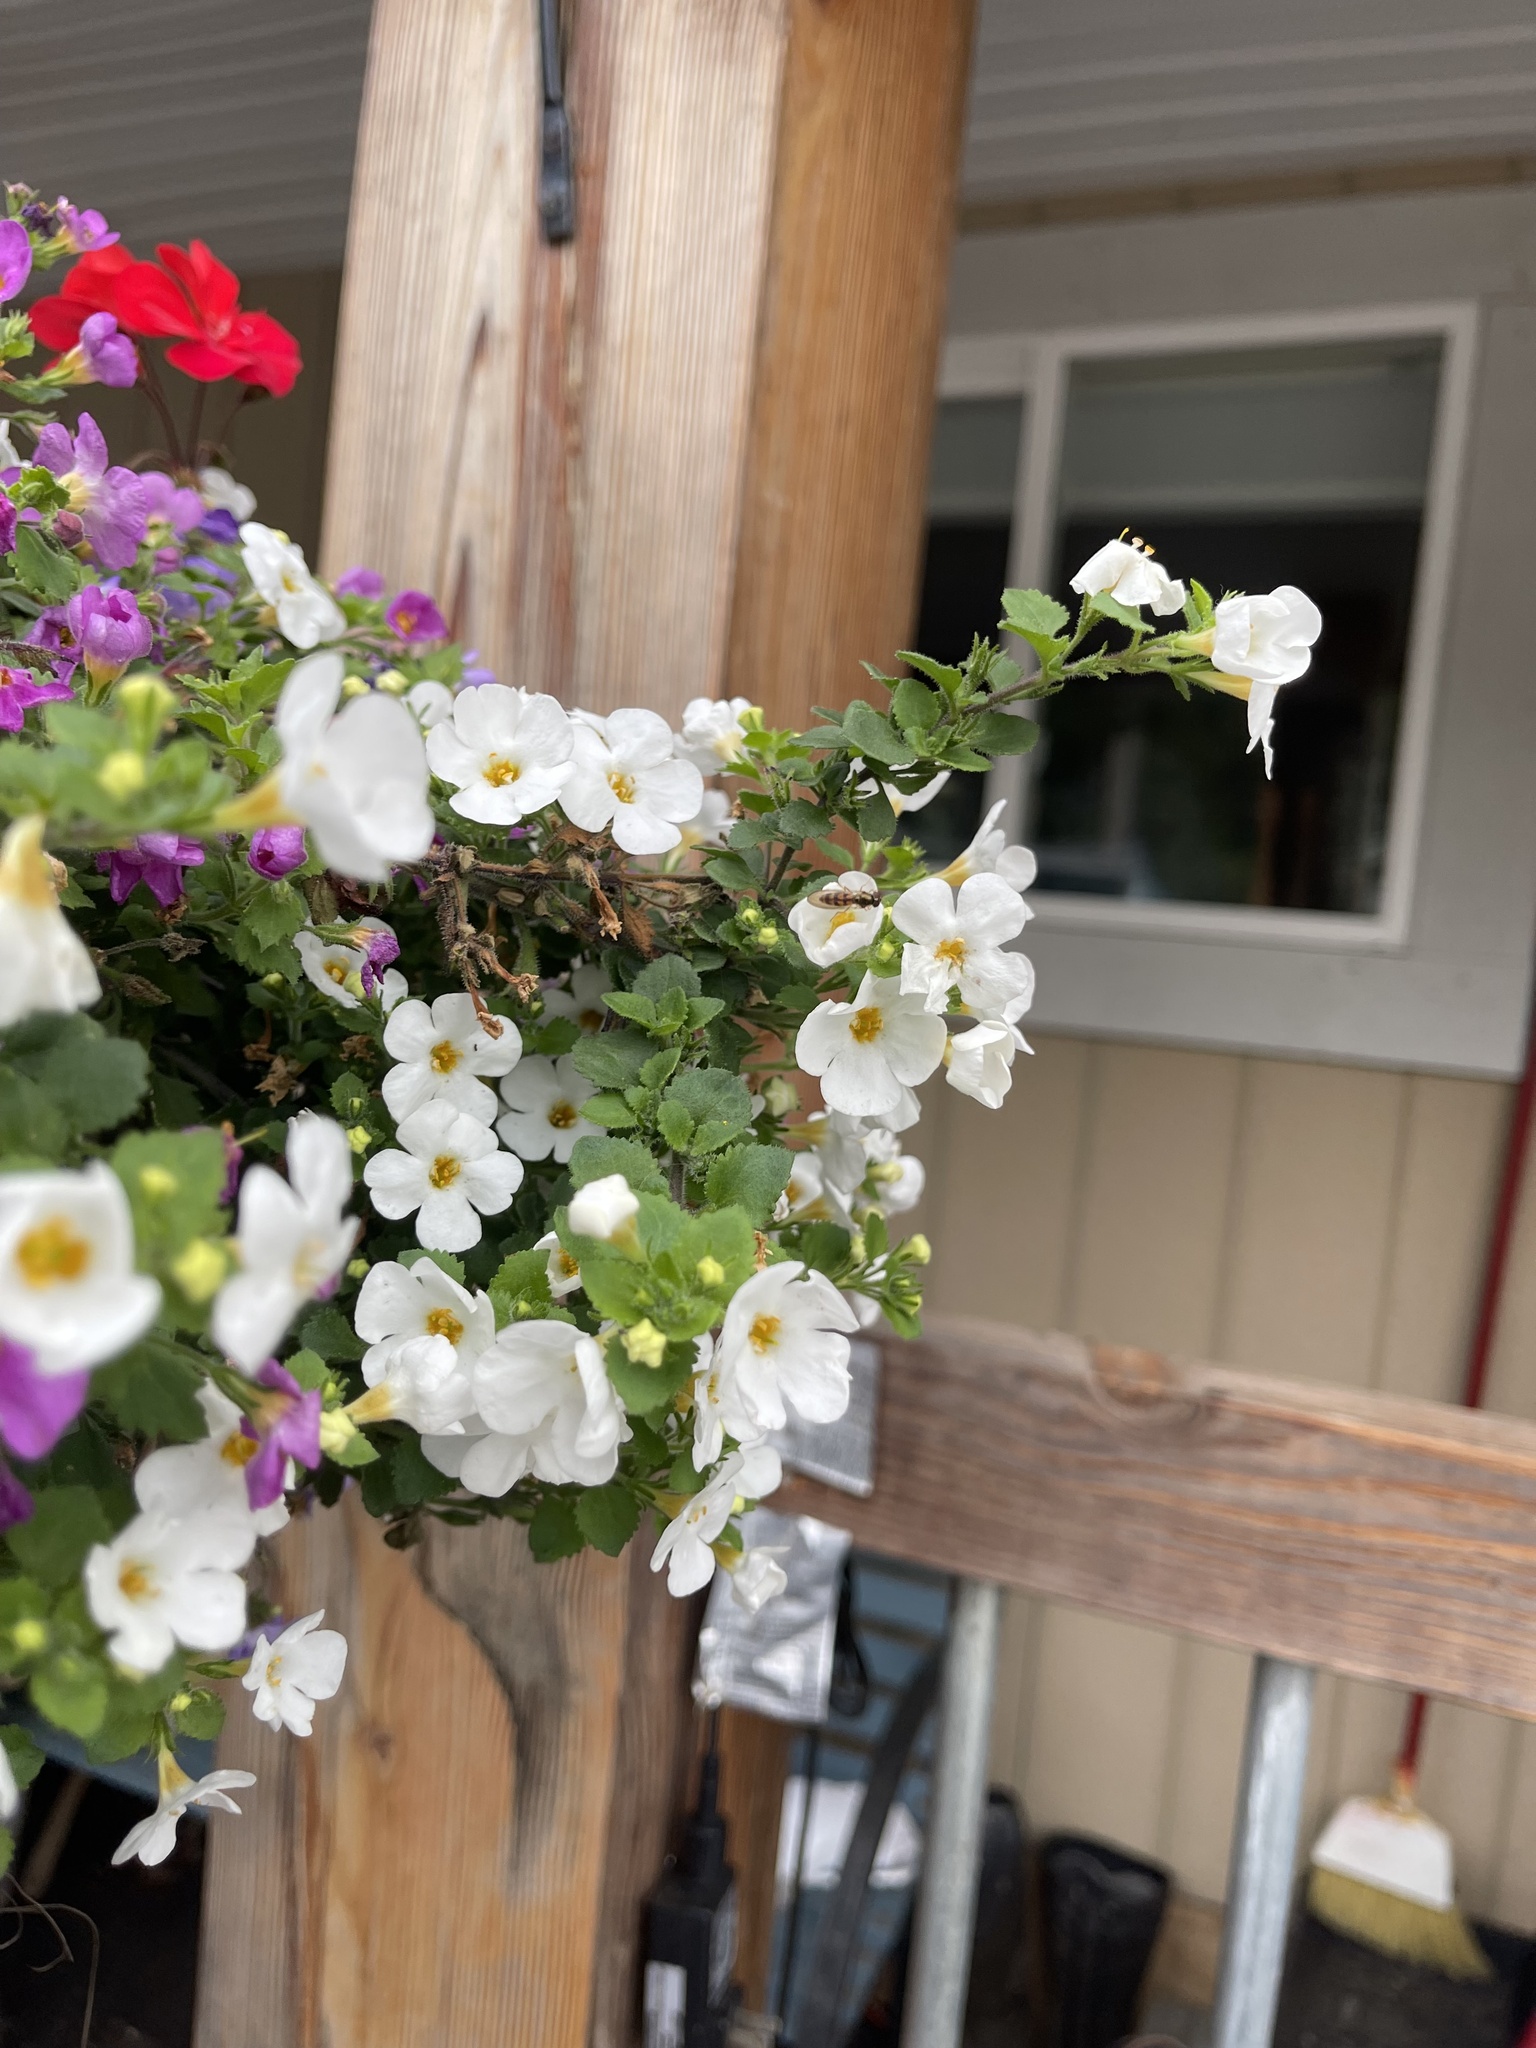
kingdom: Animalia
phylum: Arthropoda
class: Insecta
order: Diptera
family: Syrphidae
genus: Melanostoma
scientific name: Melanostoma mellina
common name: Hover fly
